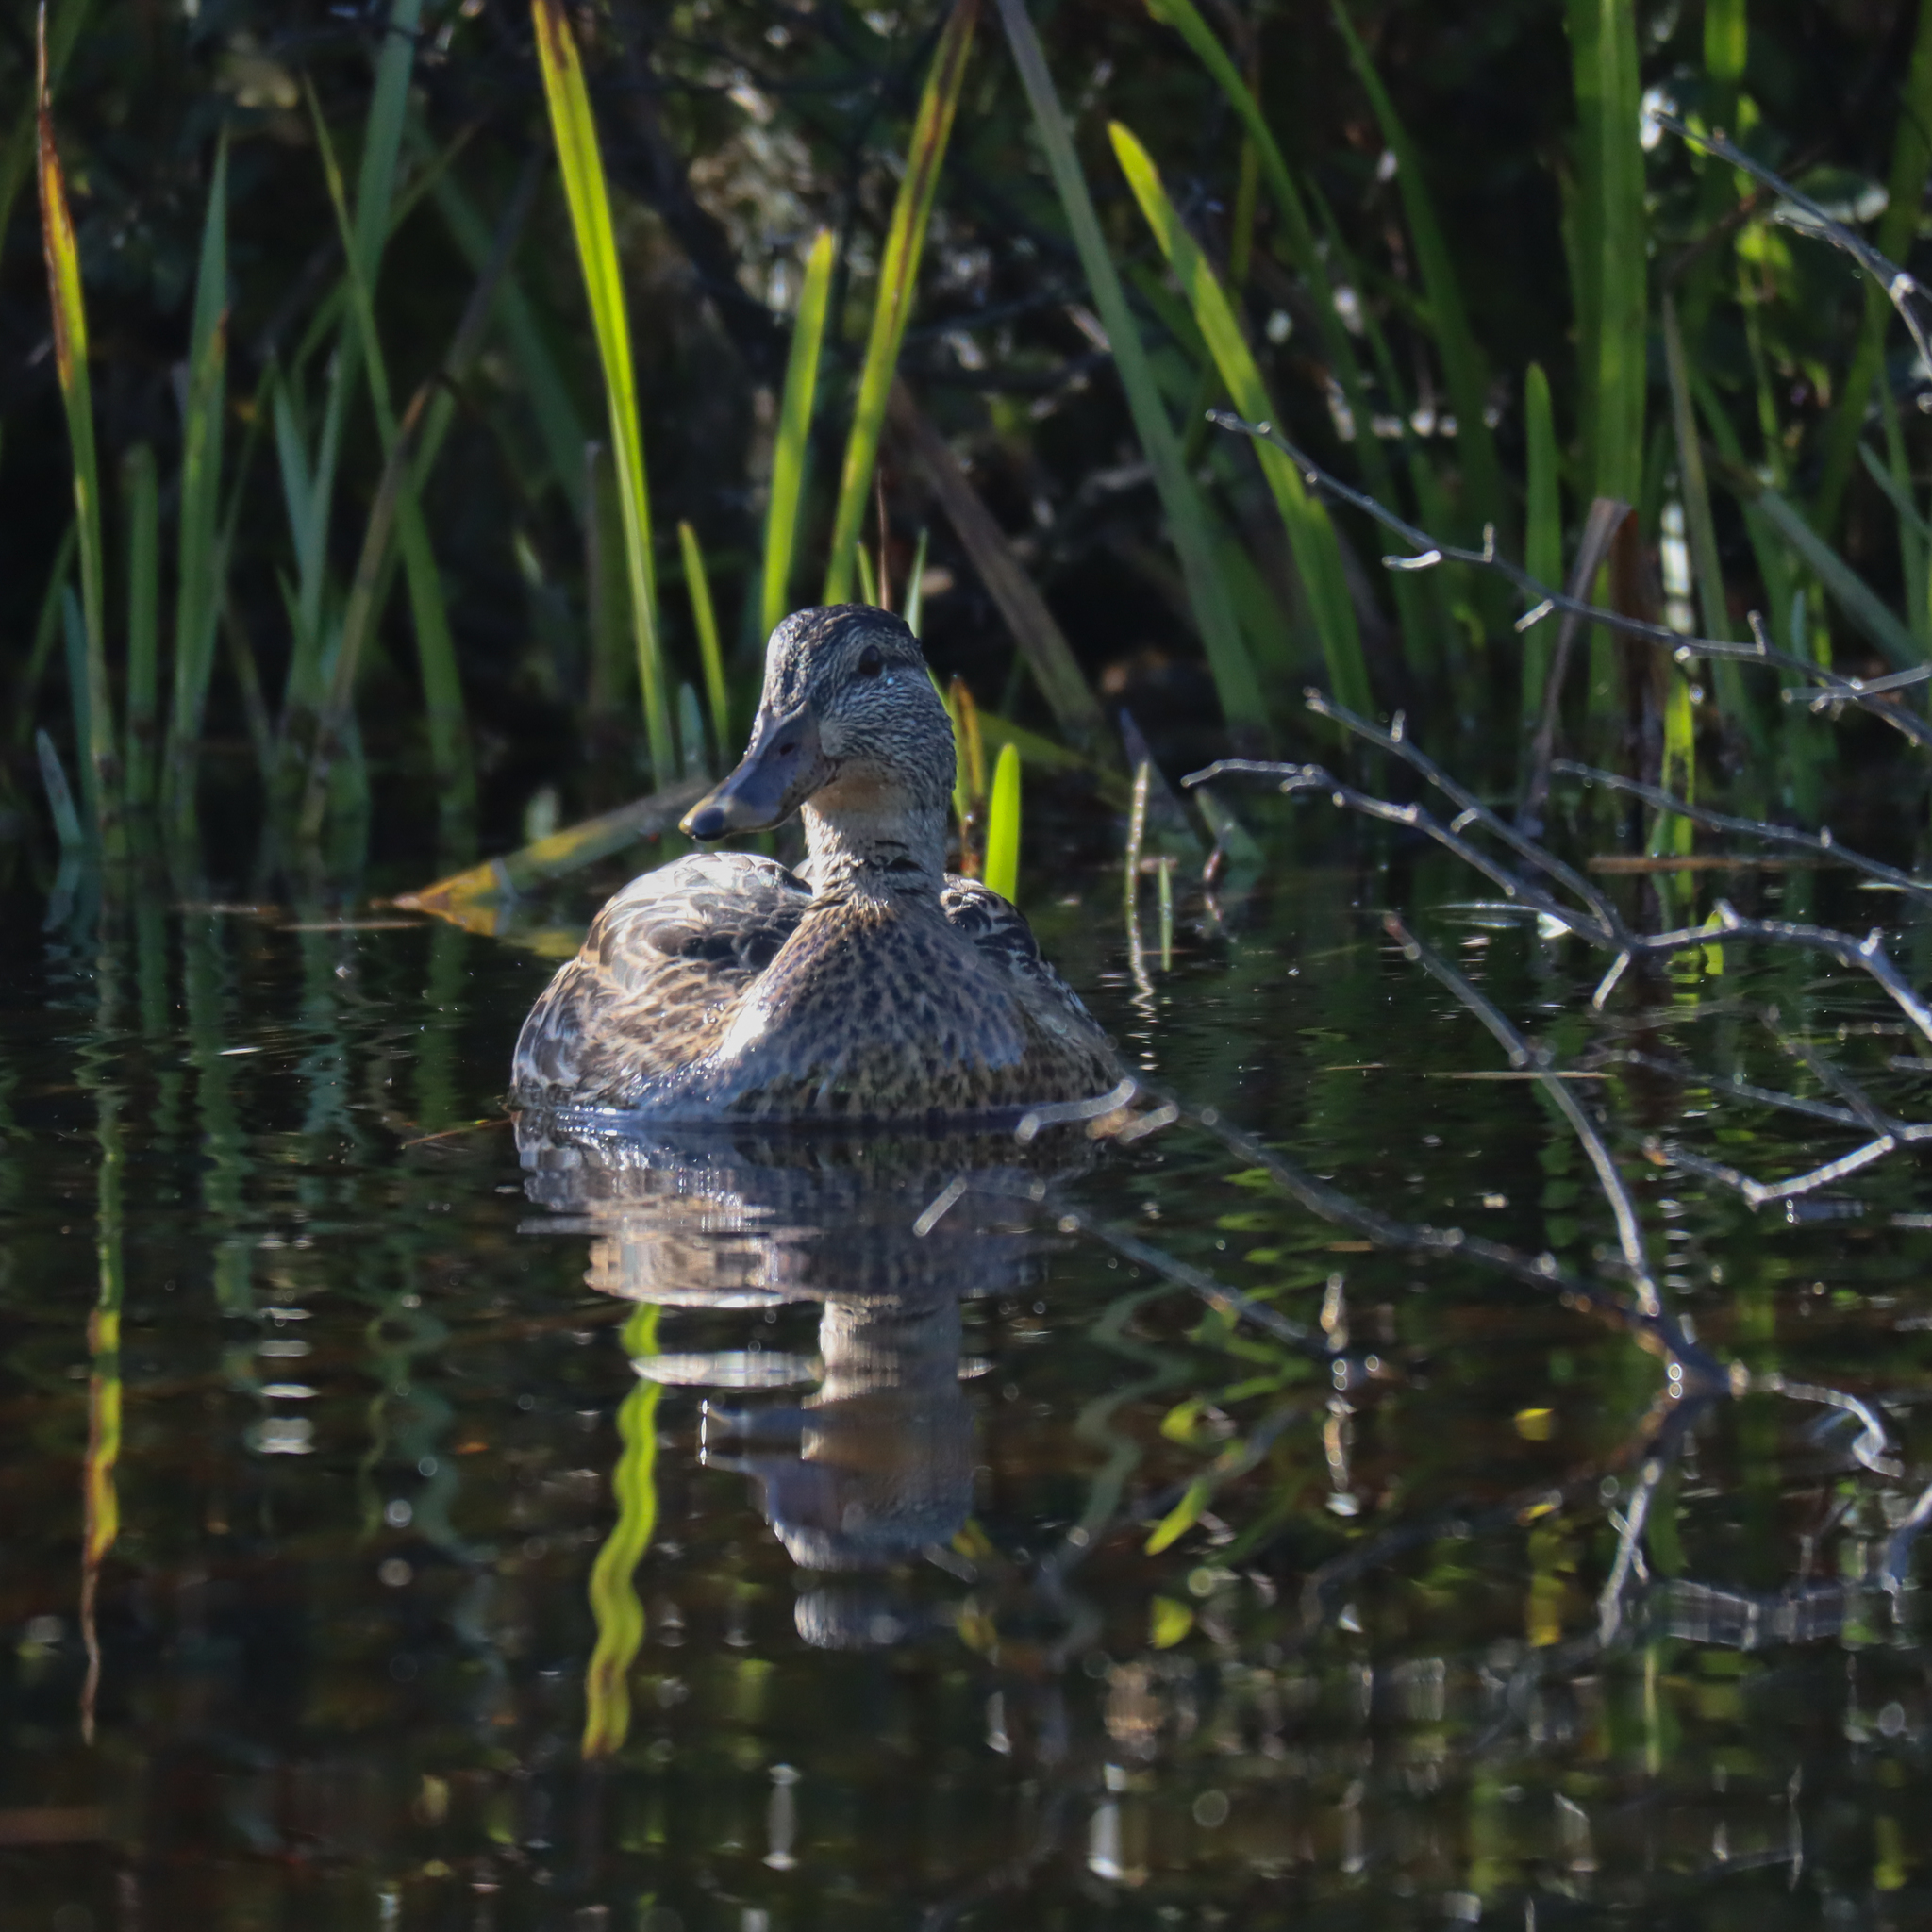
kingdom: Animalia
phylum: Chordata
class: Aves
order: Anseriformes
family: Anatidae
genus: Anas
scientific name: Anas platyrhynchos
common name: Mallard
